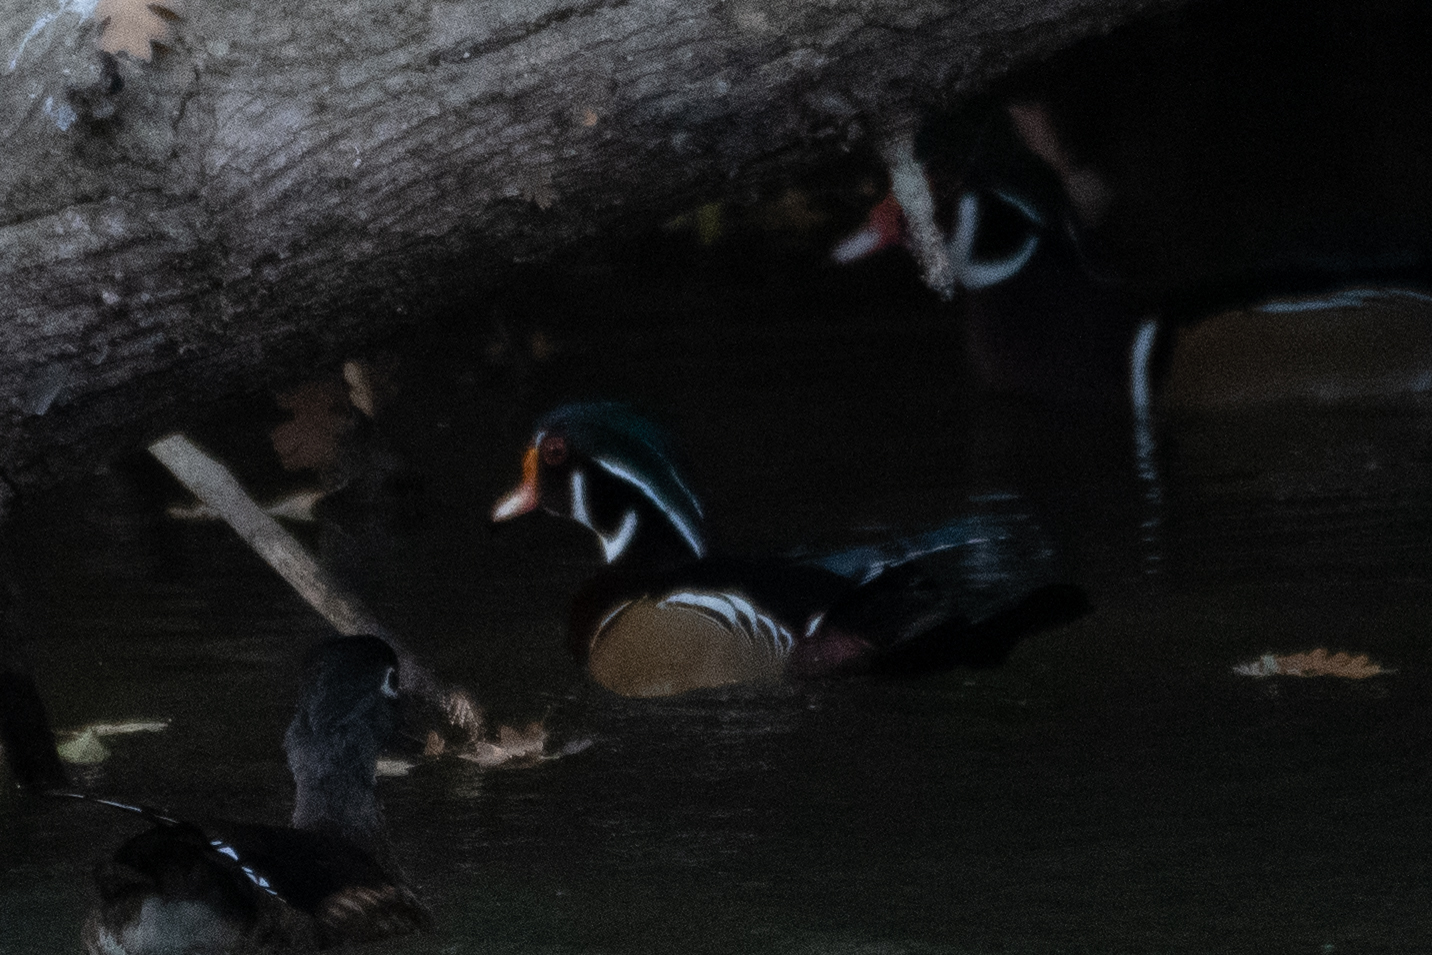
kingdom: Animalia
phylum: Chordata
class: Aves
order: Anseriformes
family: Anatidae
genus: Aix
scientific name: Aix sponsa
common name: Wood duck
